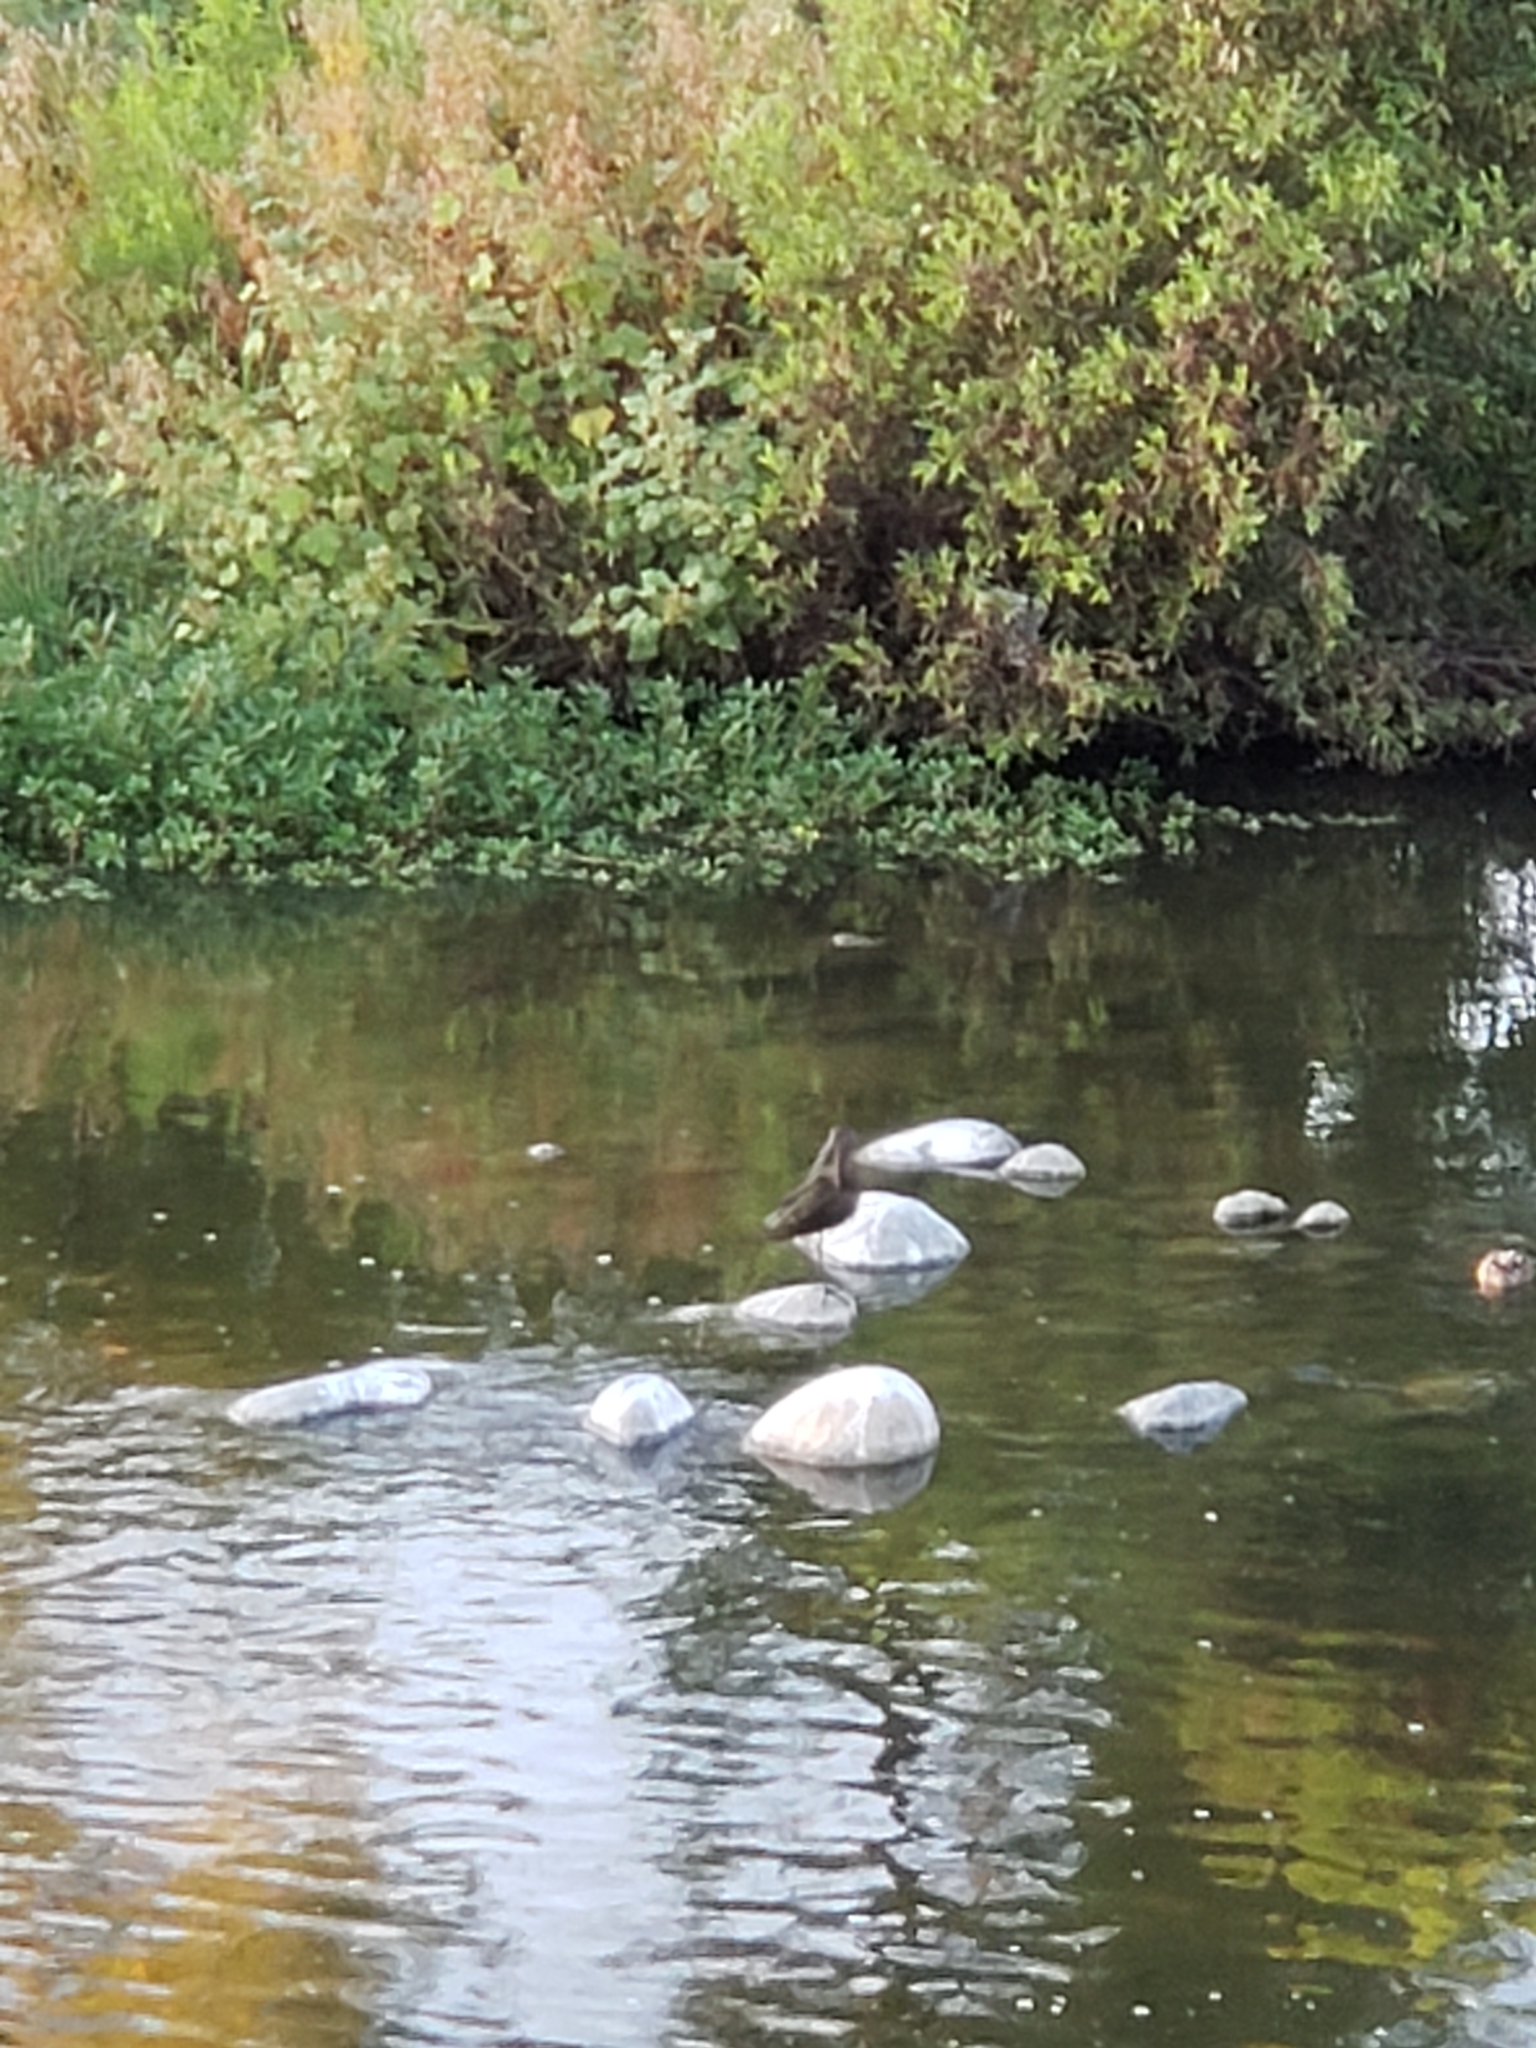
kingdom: Animalia
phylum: Chordata
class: Aves
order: Pelecaniformes
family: Threskiornithidae
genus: Plegadis
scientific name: Plegadis chihi
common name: White-faced ibis
